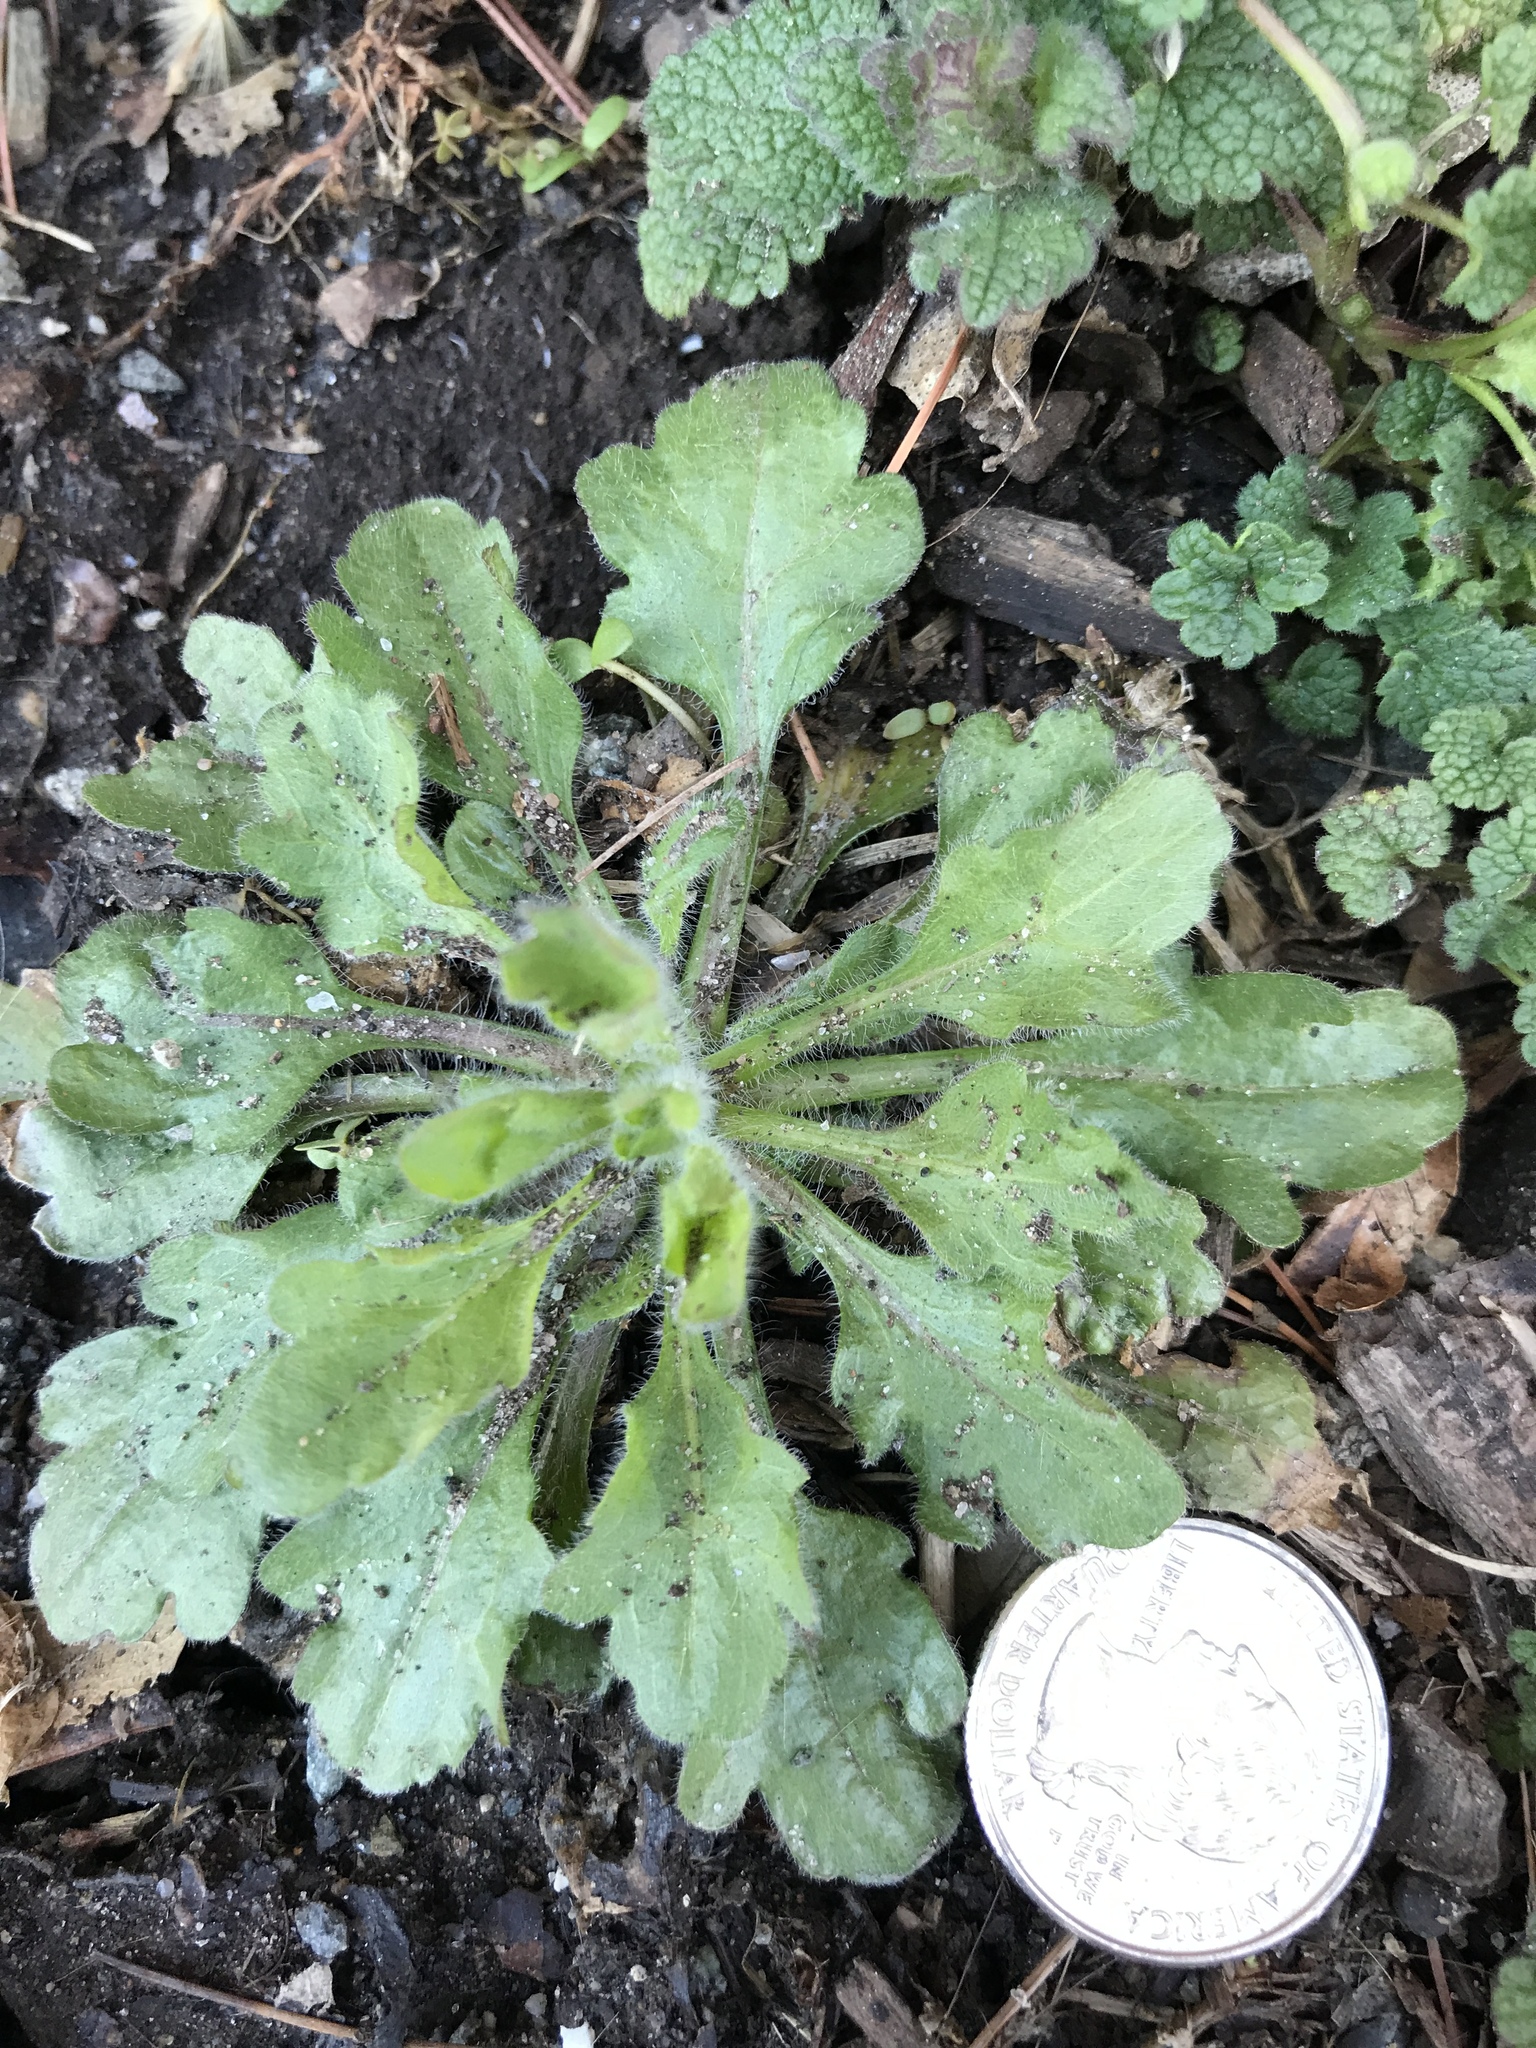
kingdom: Plantae
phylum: Tracheophyta
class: Magnoliopsida
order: Asterales
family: Asteraceae
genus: Erigeron
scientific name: Erigeron canadensis
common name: Canadian fleabane
